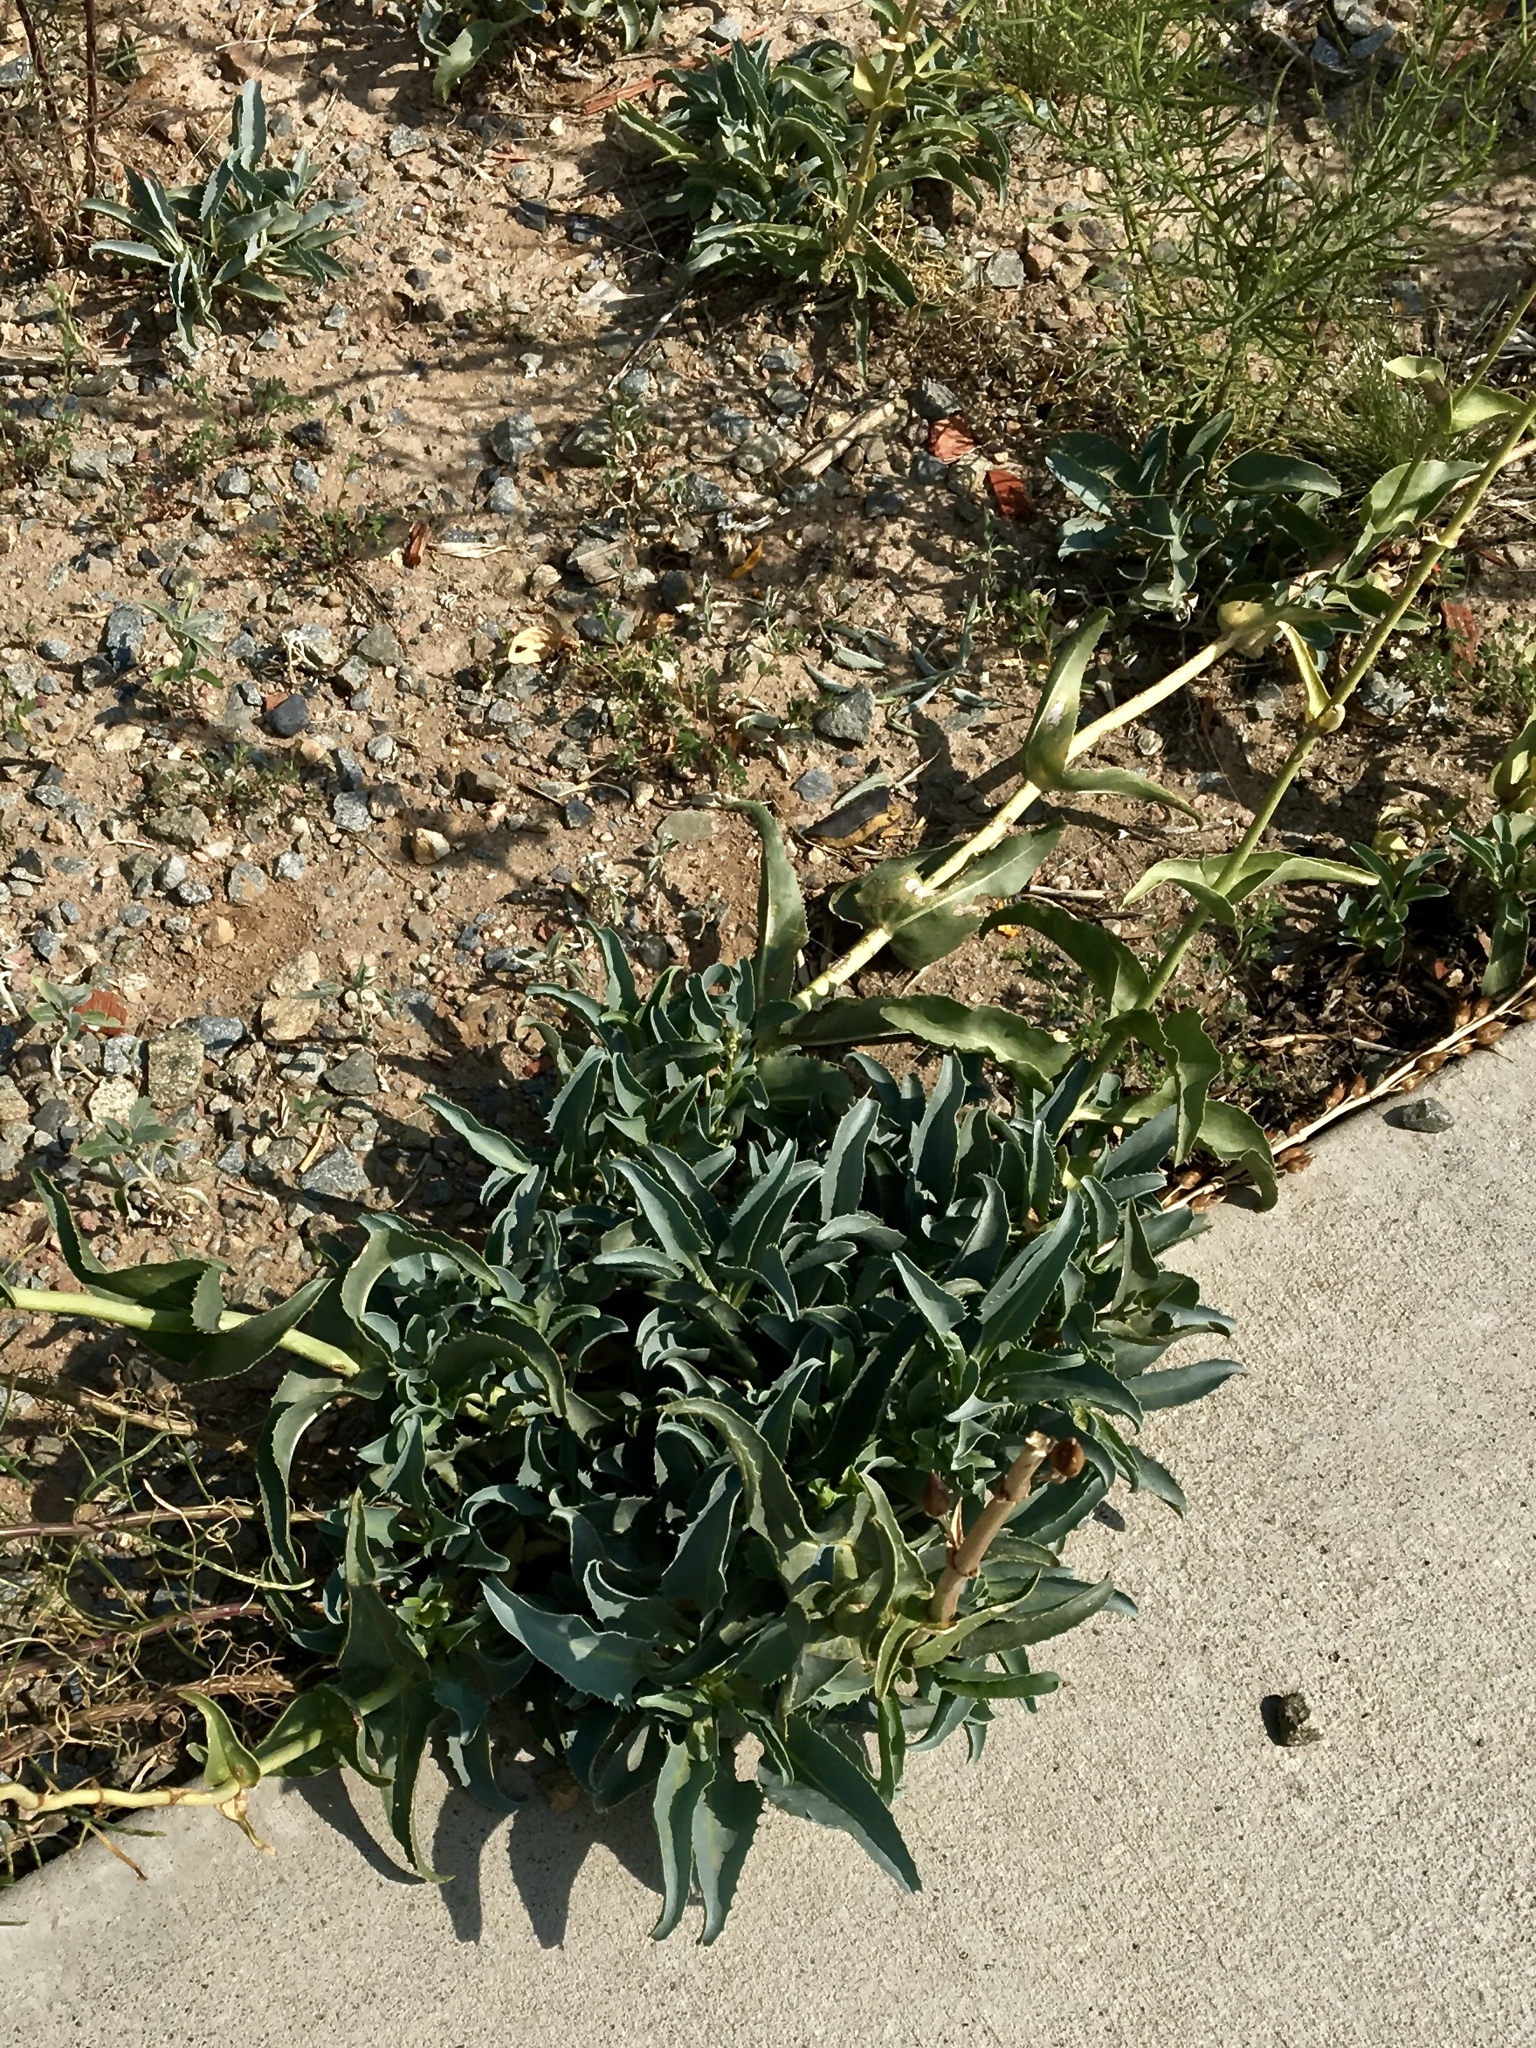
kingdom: Plantae
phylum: Tracheophyta
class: Magnoliopsida
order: Lamiales
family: Plantaginaceae
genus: Penstemon
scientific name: Penstemon palmeri
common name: Palmer penstemon
